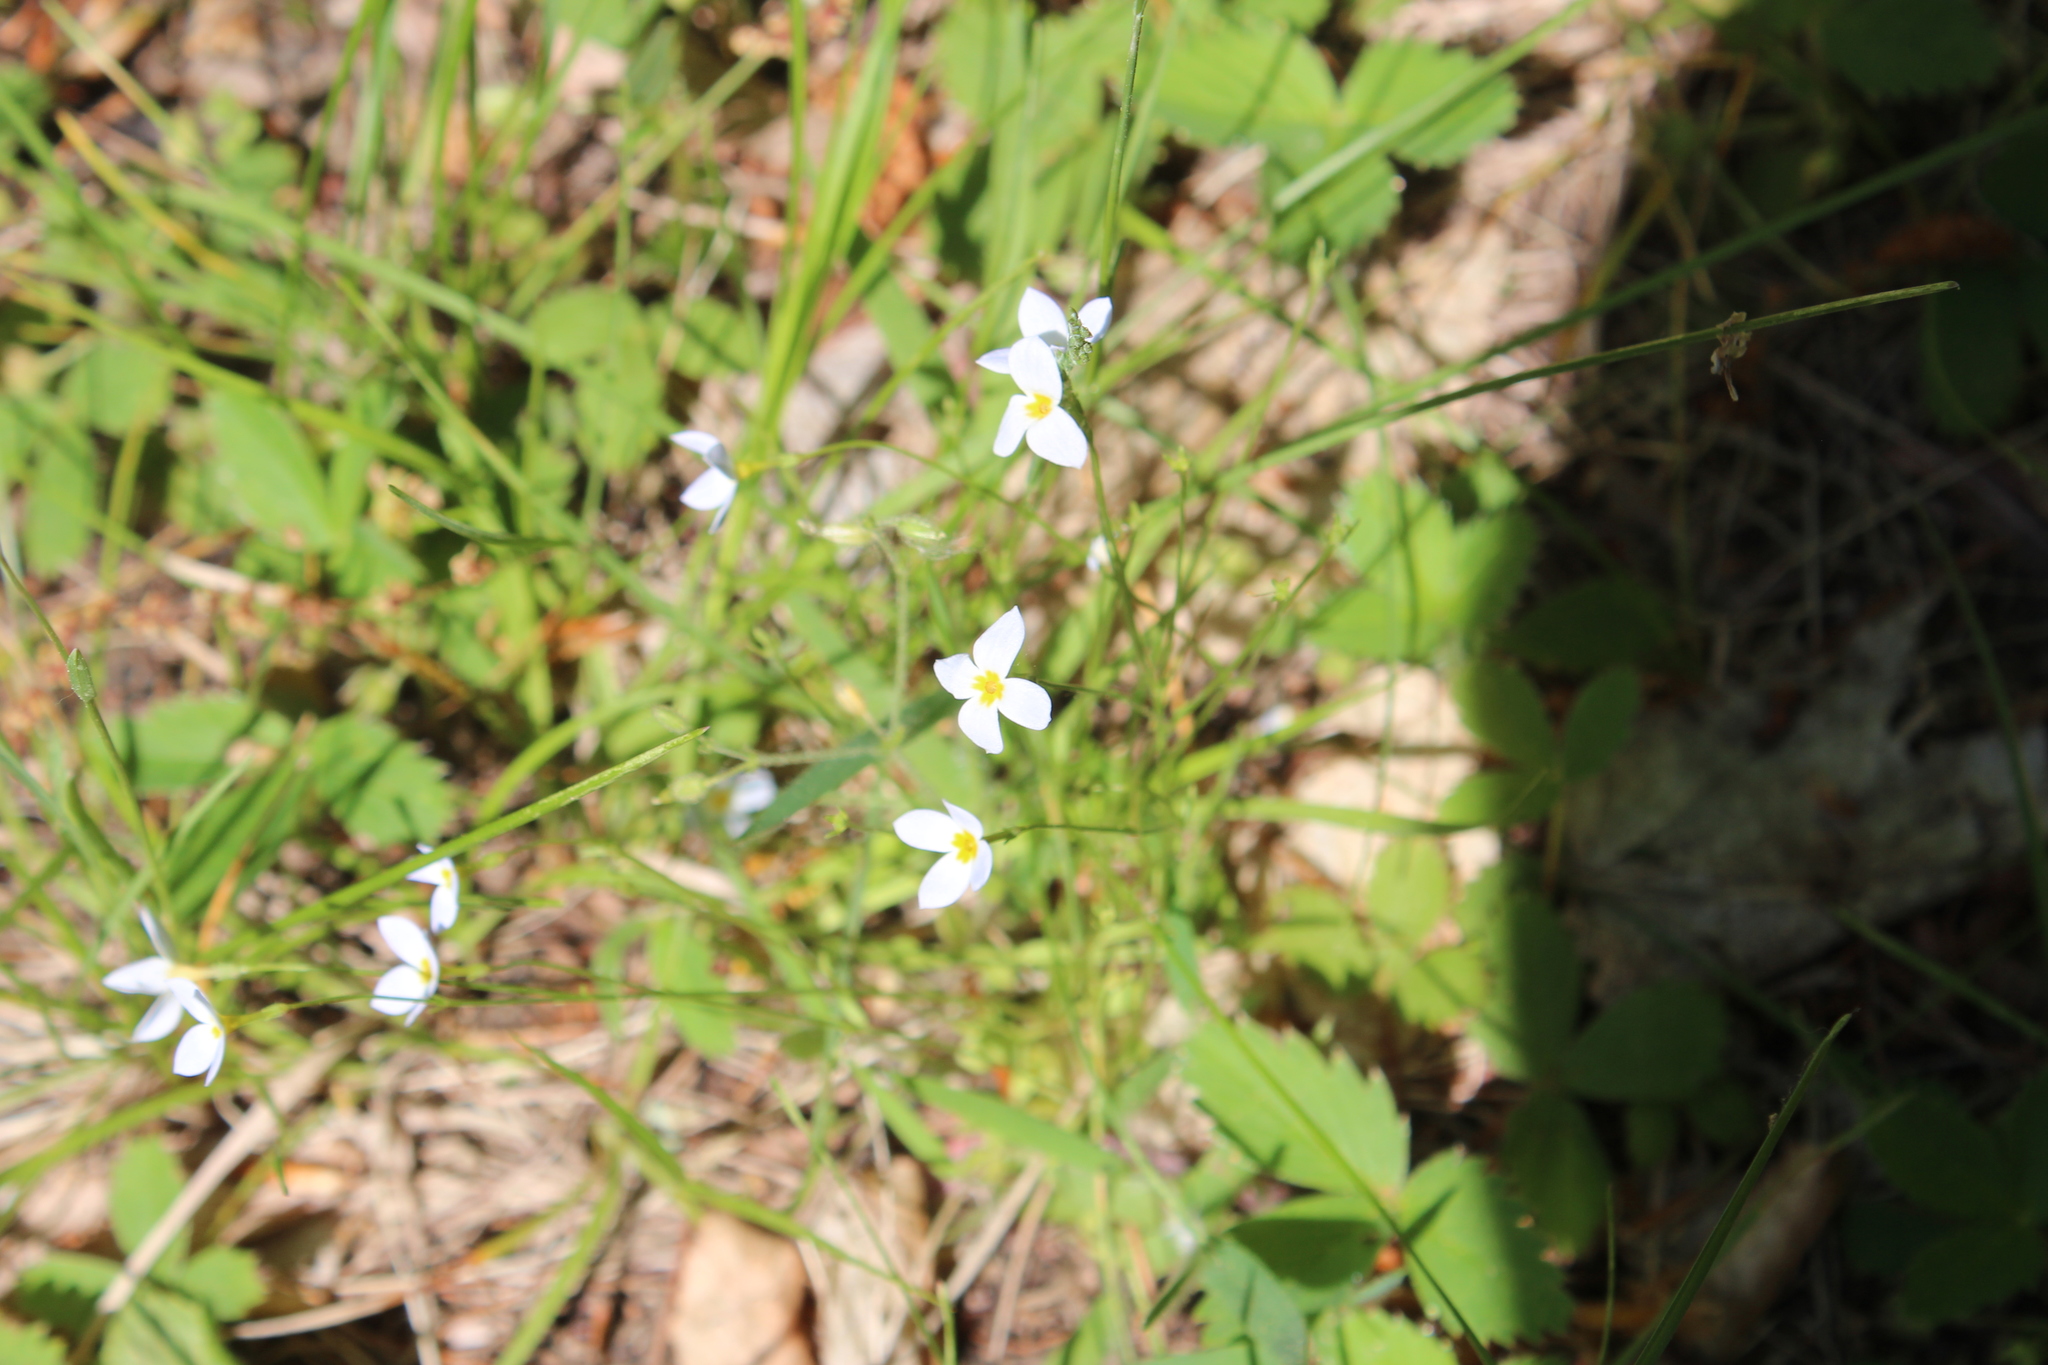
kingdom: Plantae
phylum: Tracheophyta
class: Magnoliopsida
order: Gentianales
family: Rubiaceae
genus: Houstonia
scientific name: Houstonia caerulea
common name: Bluets
